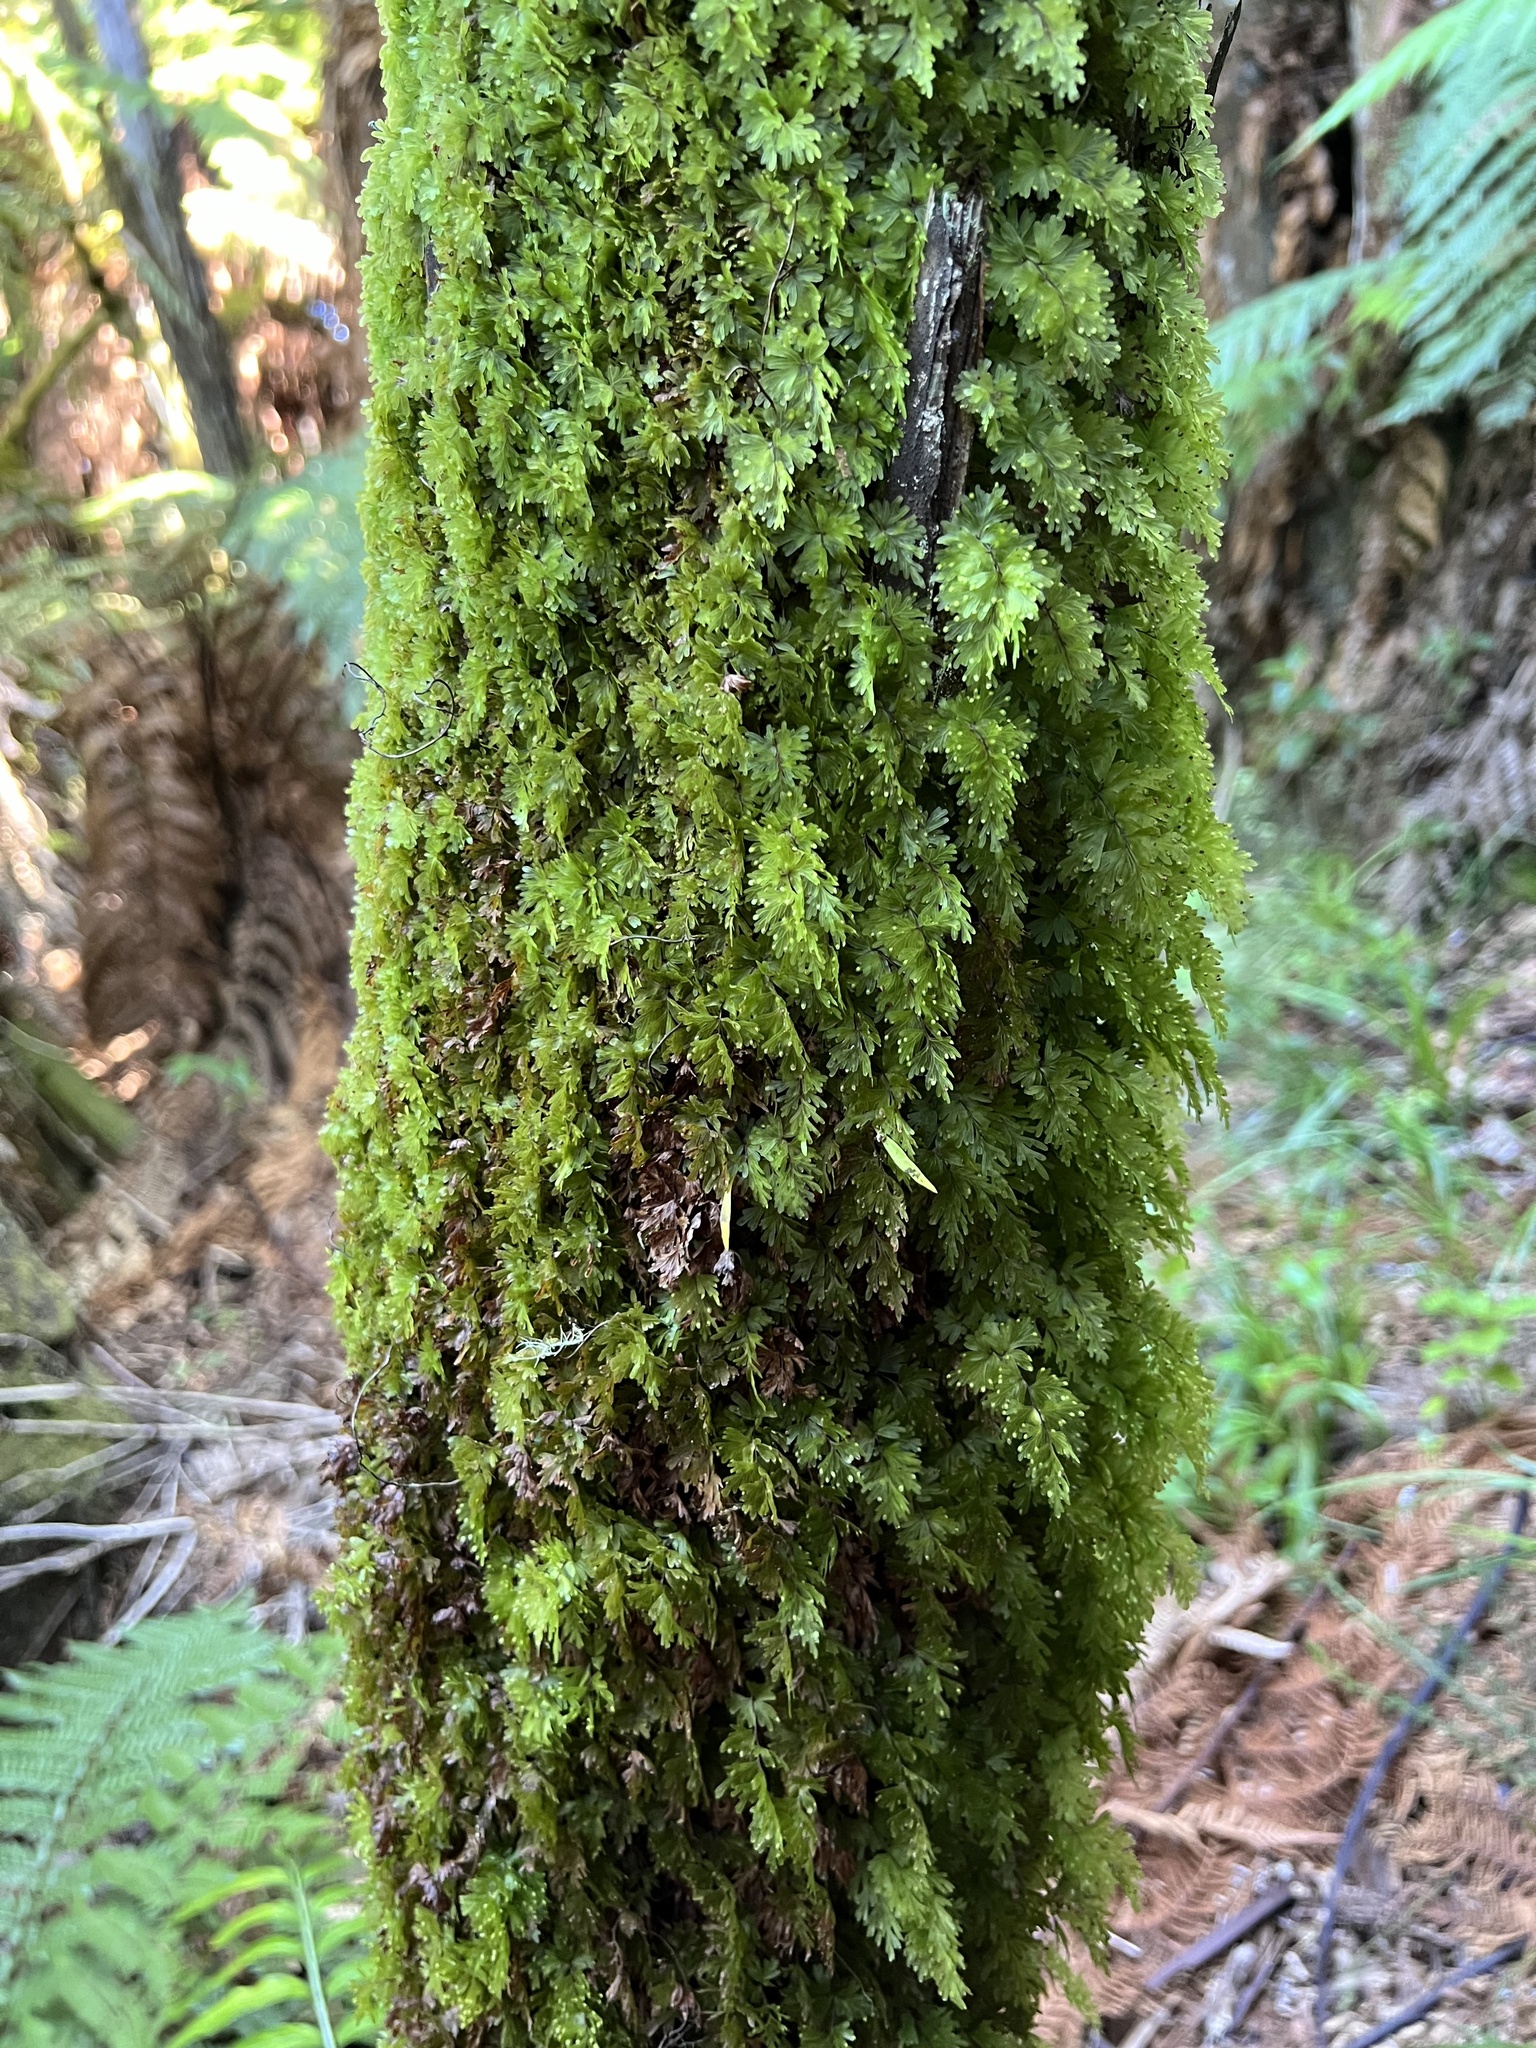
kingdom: Plantae
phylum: Tracheophyta
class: Polypodiopsida
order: Hymenophyllales
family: Hymenophyllaceae
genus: Hymenophyllum
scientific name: Hymenophyllum flabellatum
